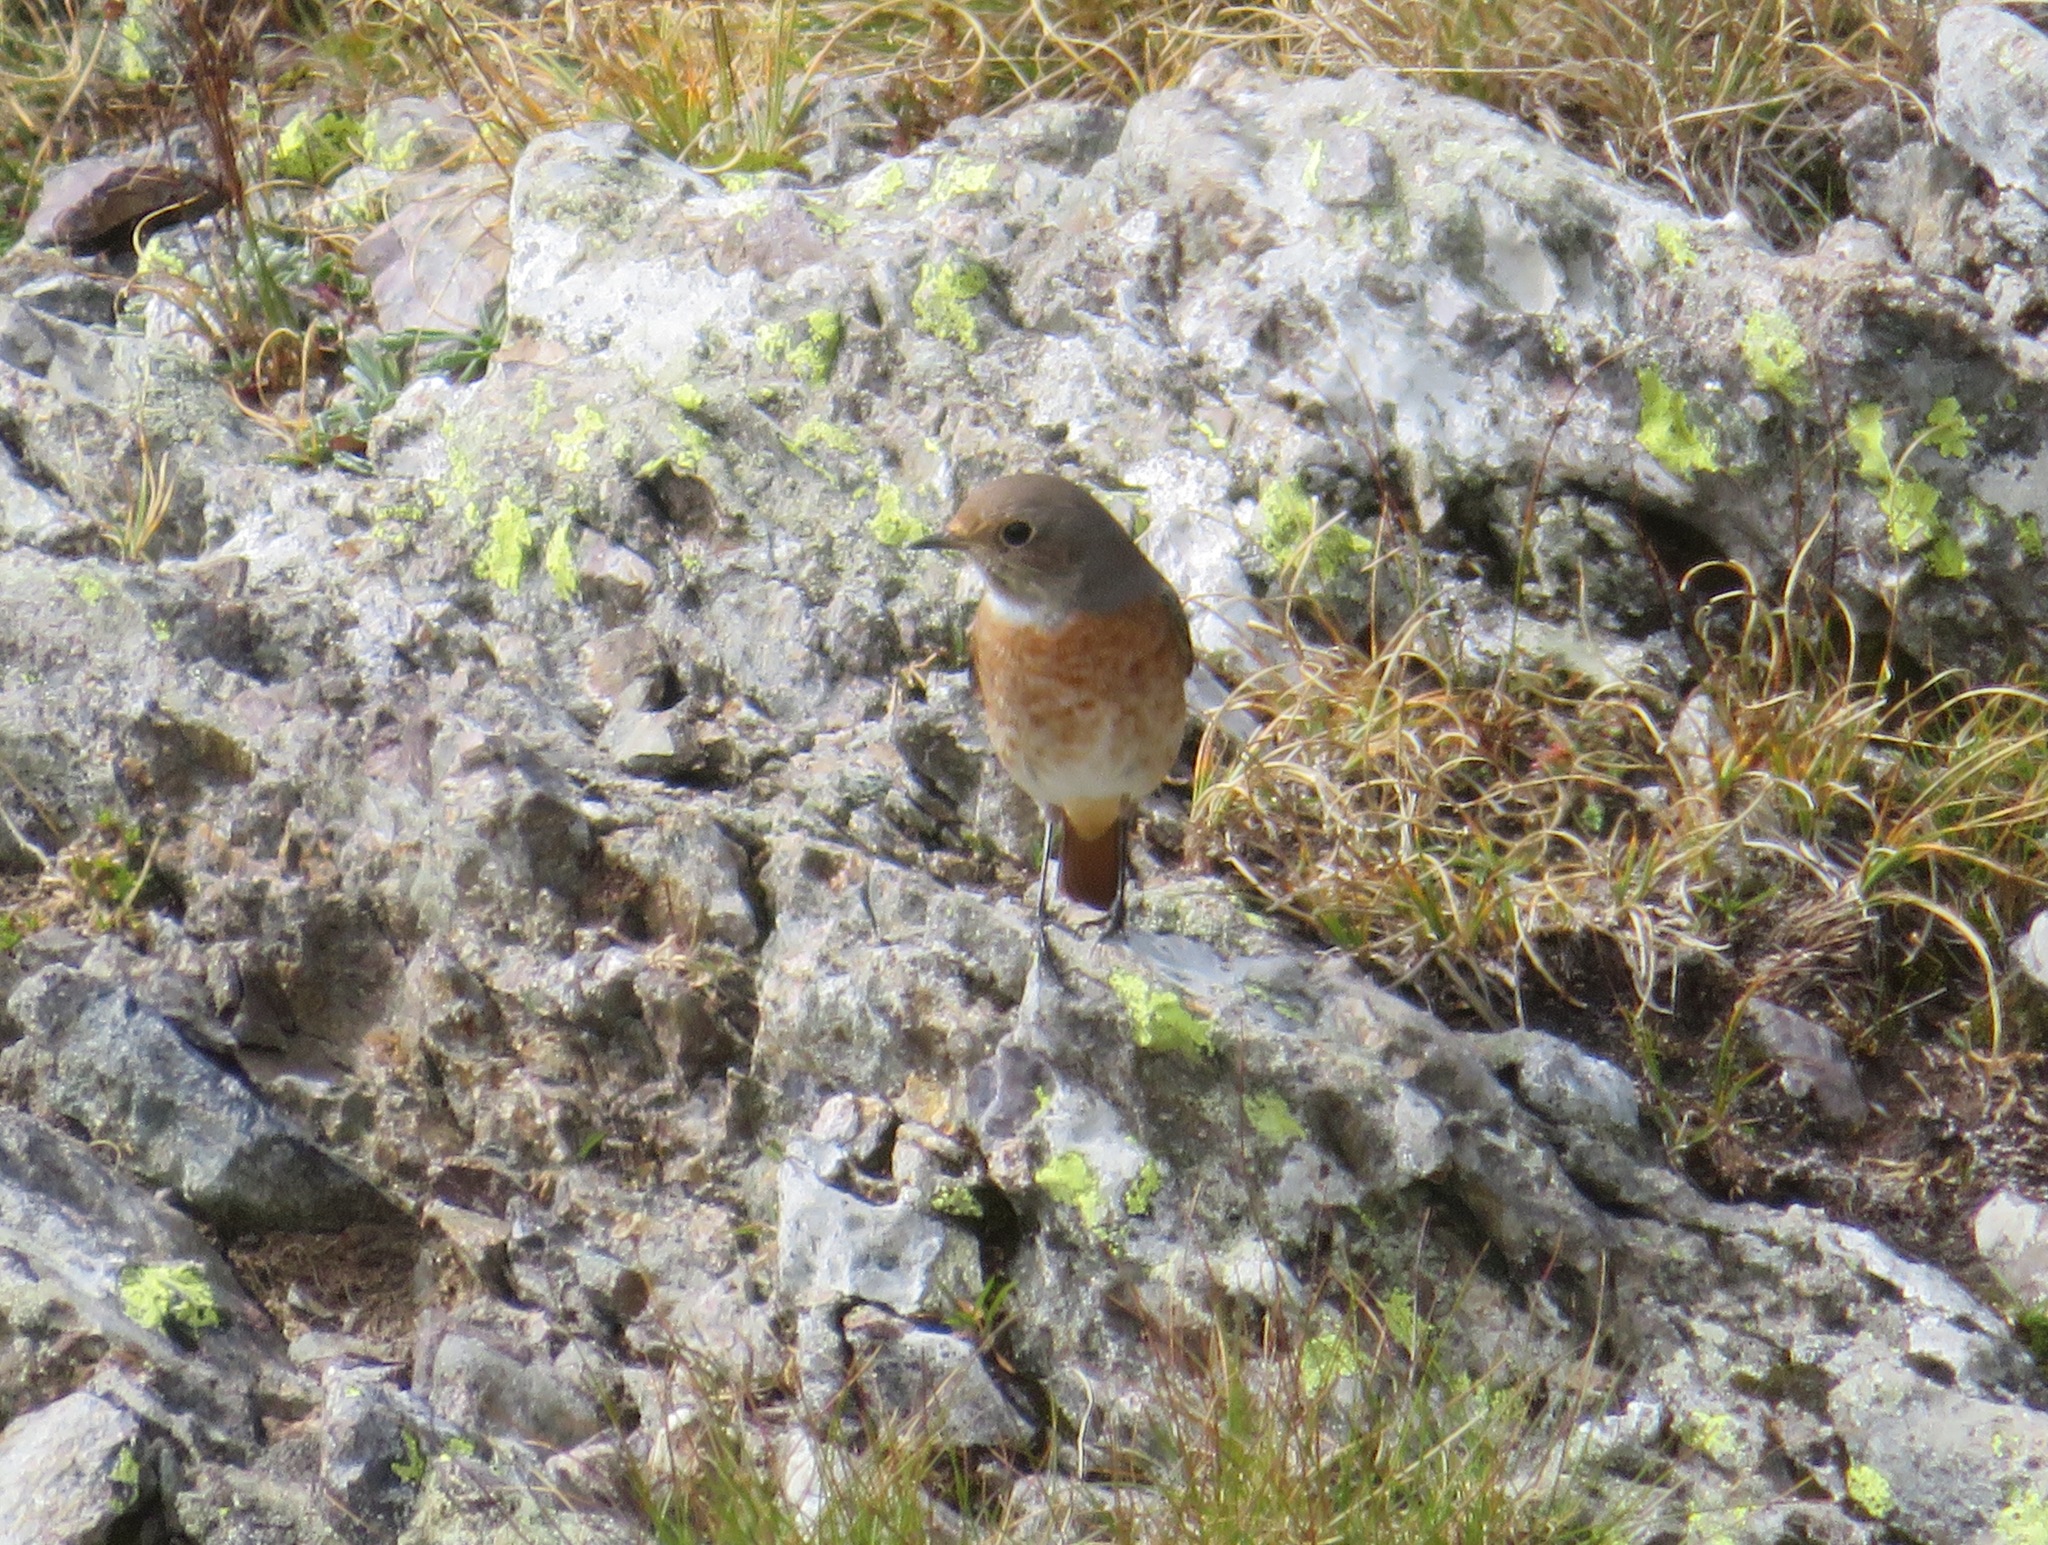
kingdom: Animalia
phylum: Chordata
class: Aves
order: Passeriformes
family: Muscicapidae
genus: Phoenicurus
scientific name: Phoenicurus phoenicurus
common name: Common redstart
